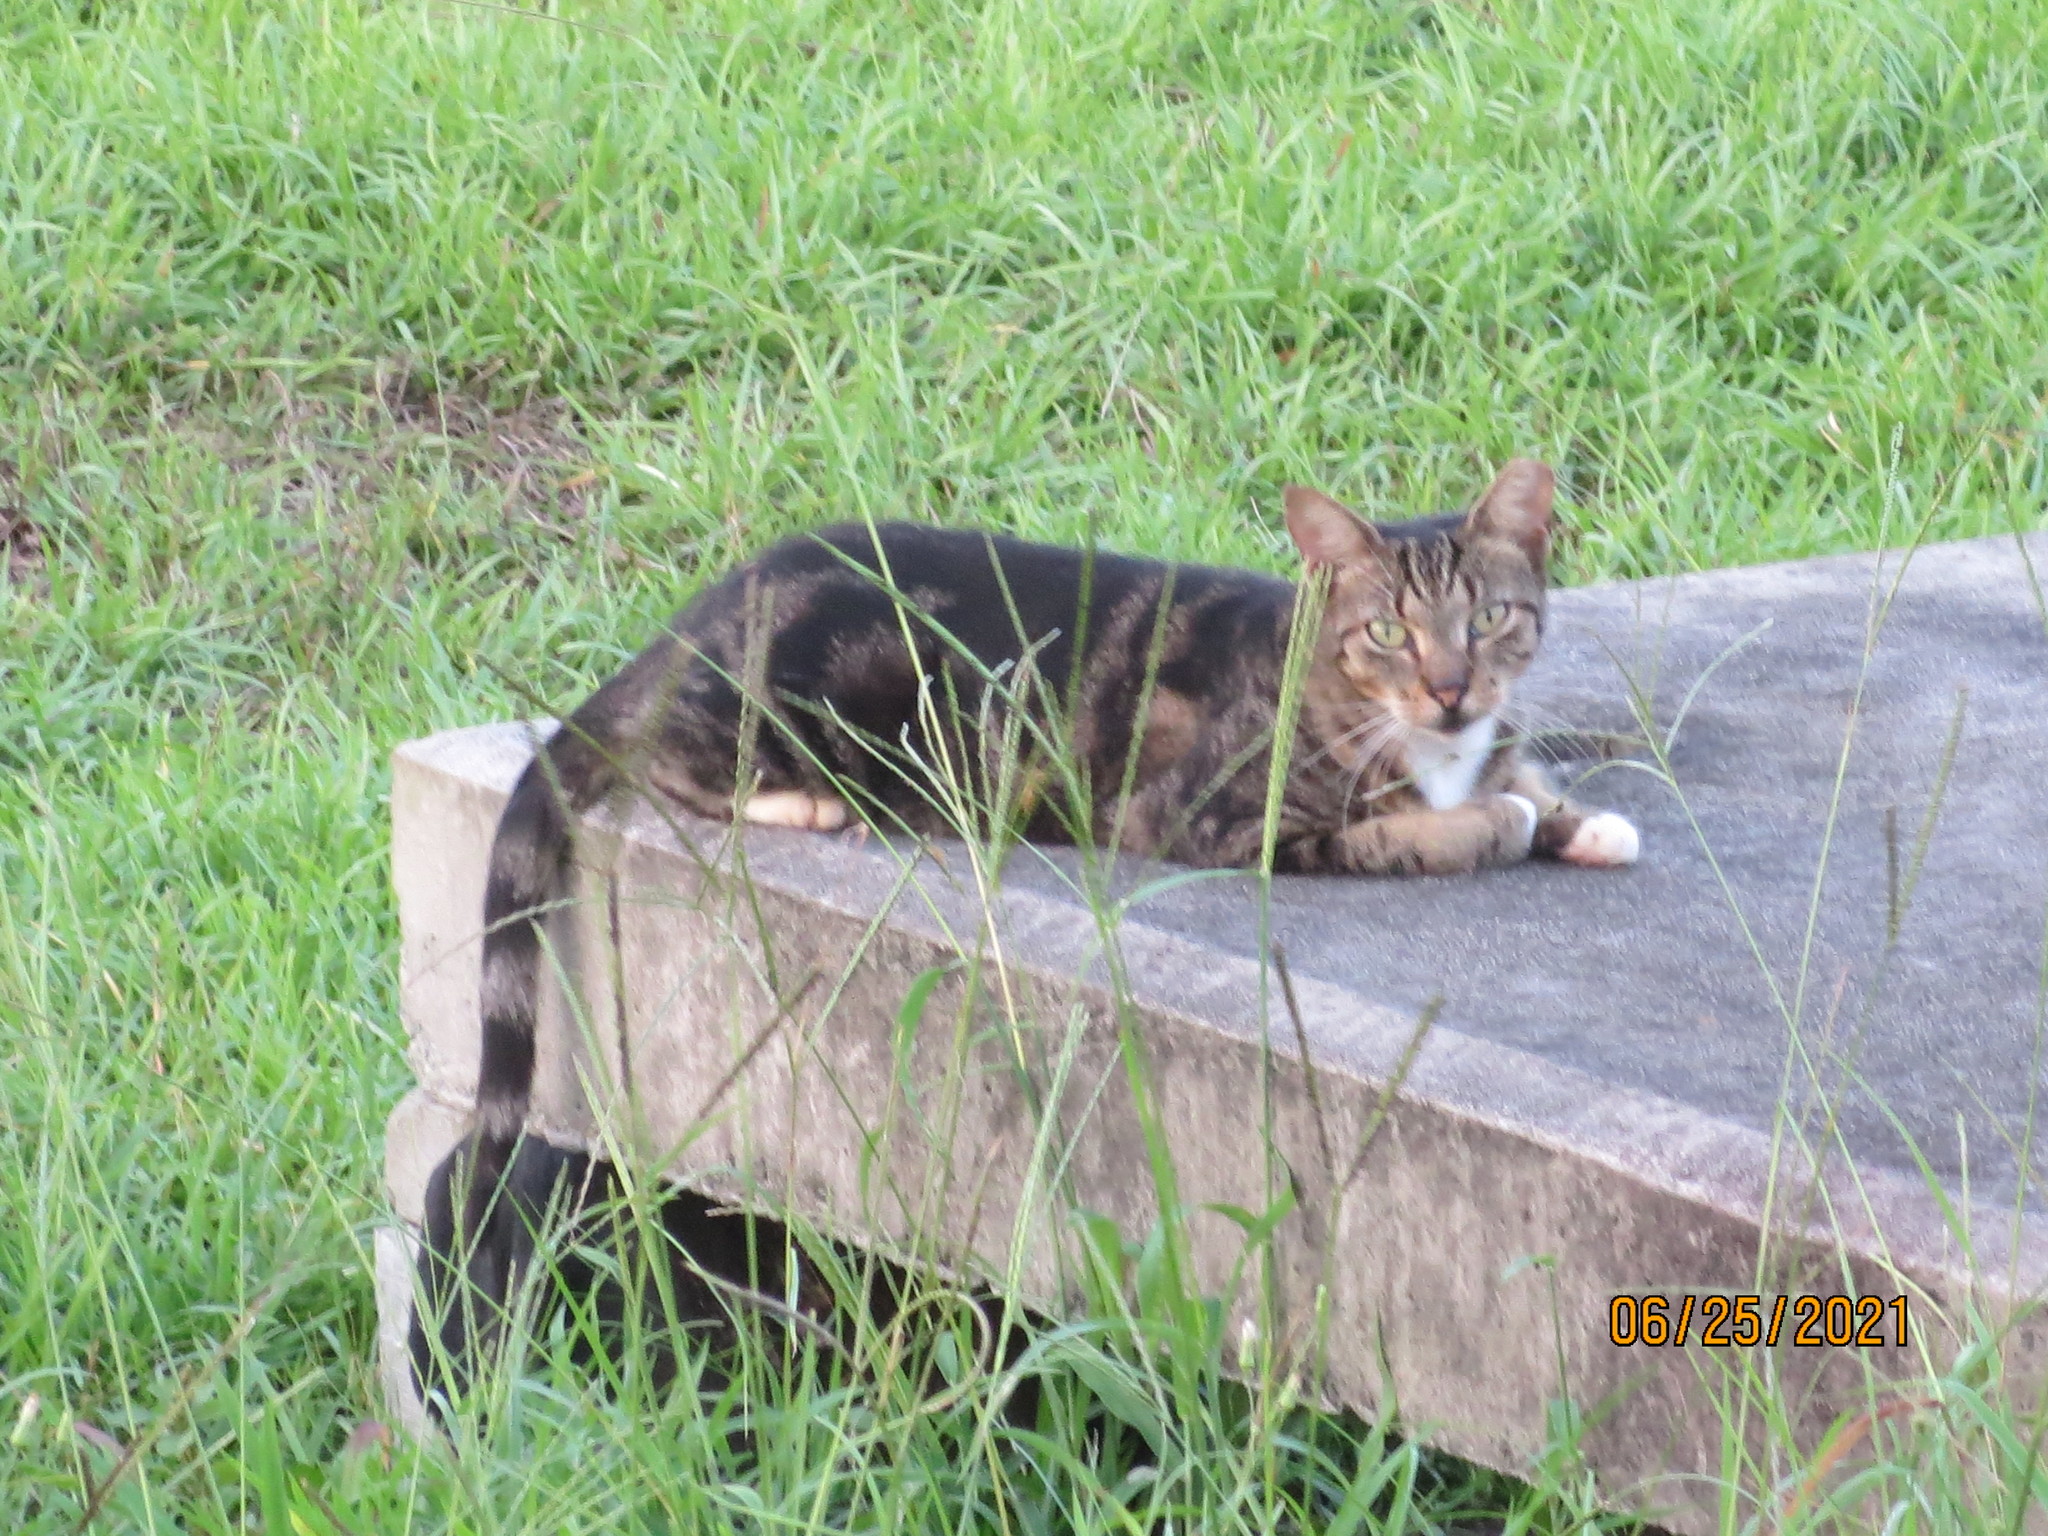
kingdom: Animalia
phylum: Chordata
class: Mammalia
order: Carnivora
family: Felidae
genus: Felis
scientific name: Felis catus
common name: Domestic cat
